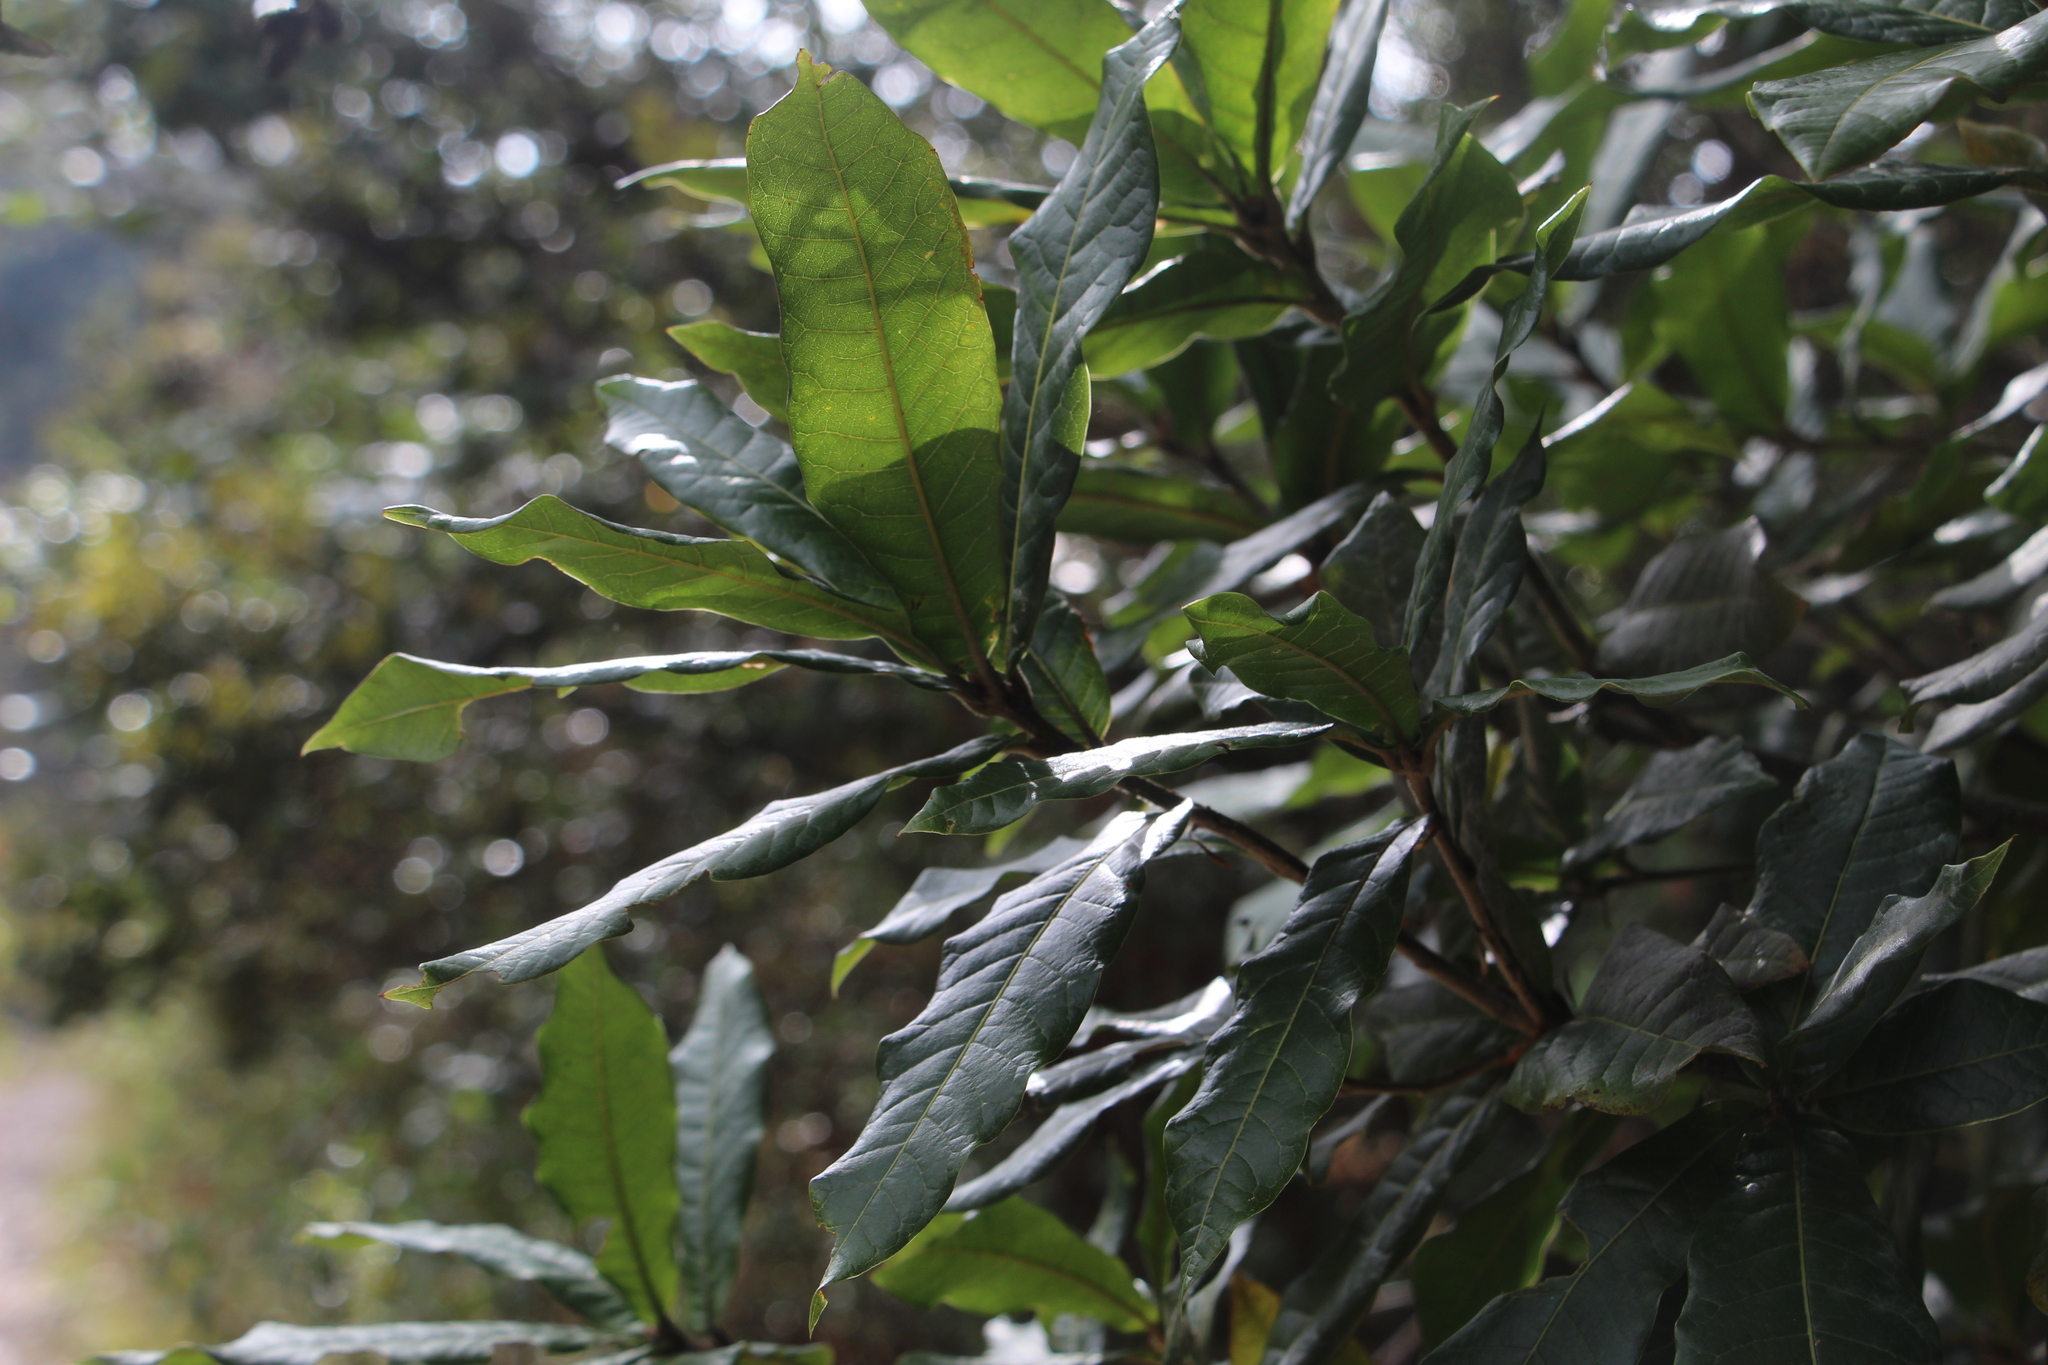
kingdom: Plantae
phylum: Tracheophyta
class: Magnoliopsida
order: Fagales
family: Fagaceae
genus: Quercus
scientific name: Quercus humboldtii
